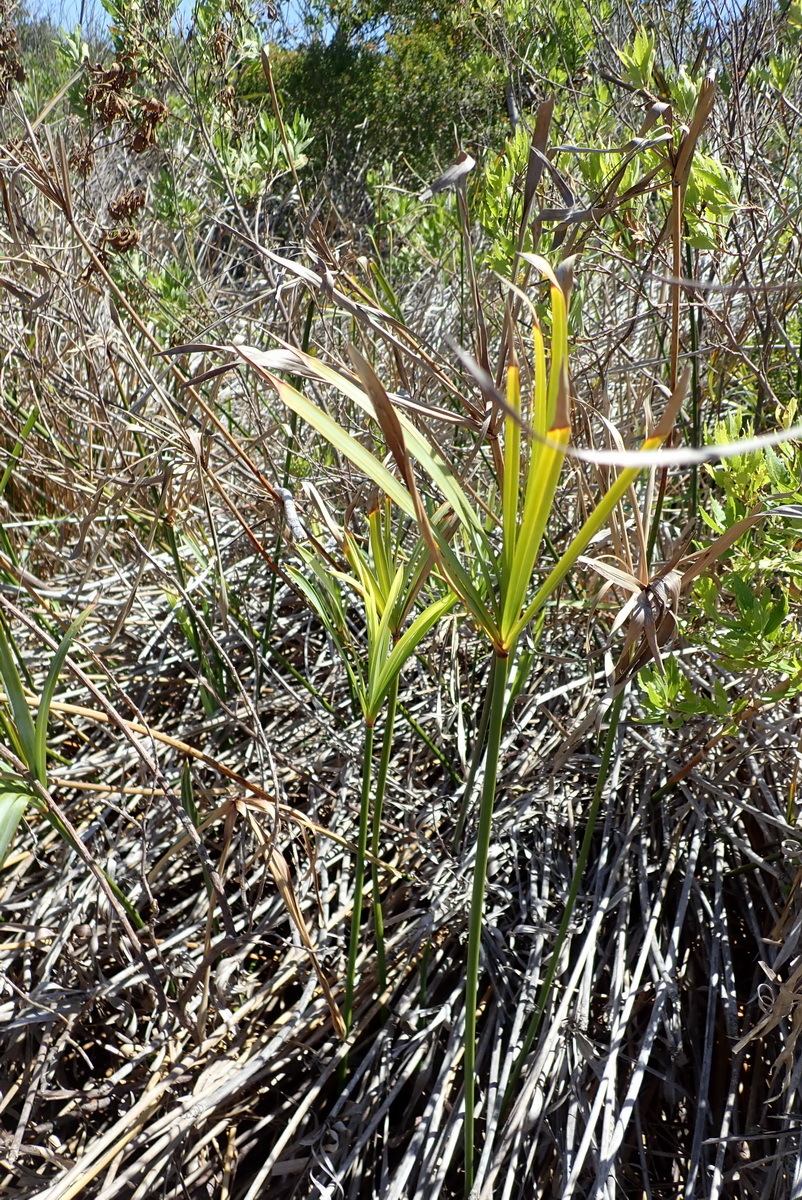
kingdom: Plantae
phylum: Tracheophyta
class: Liliopsida
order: Poales
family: Cyperaceae
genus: Cyperus
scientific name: Cyperus textilis
